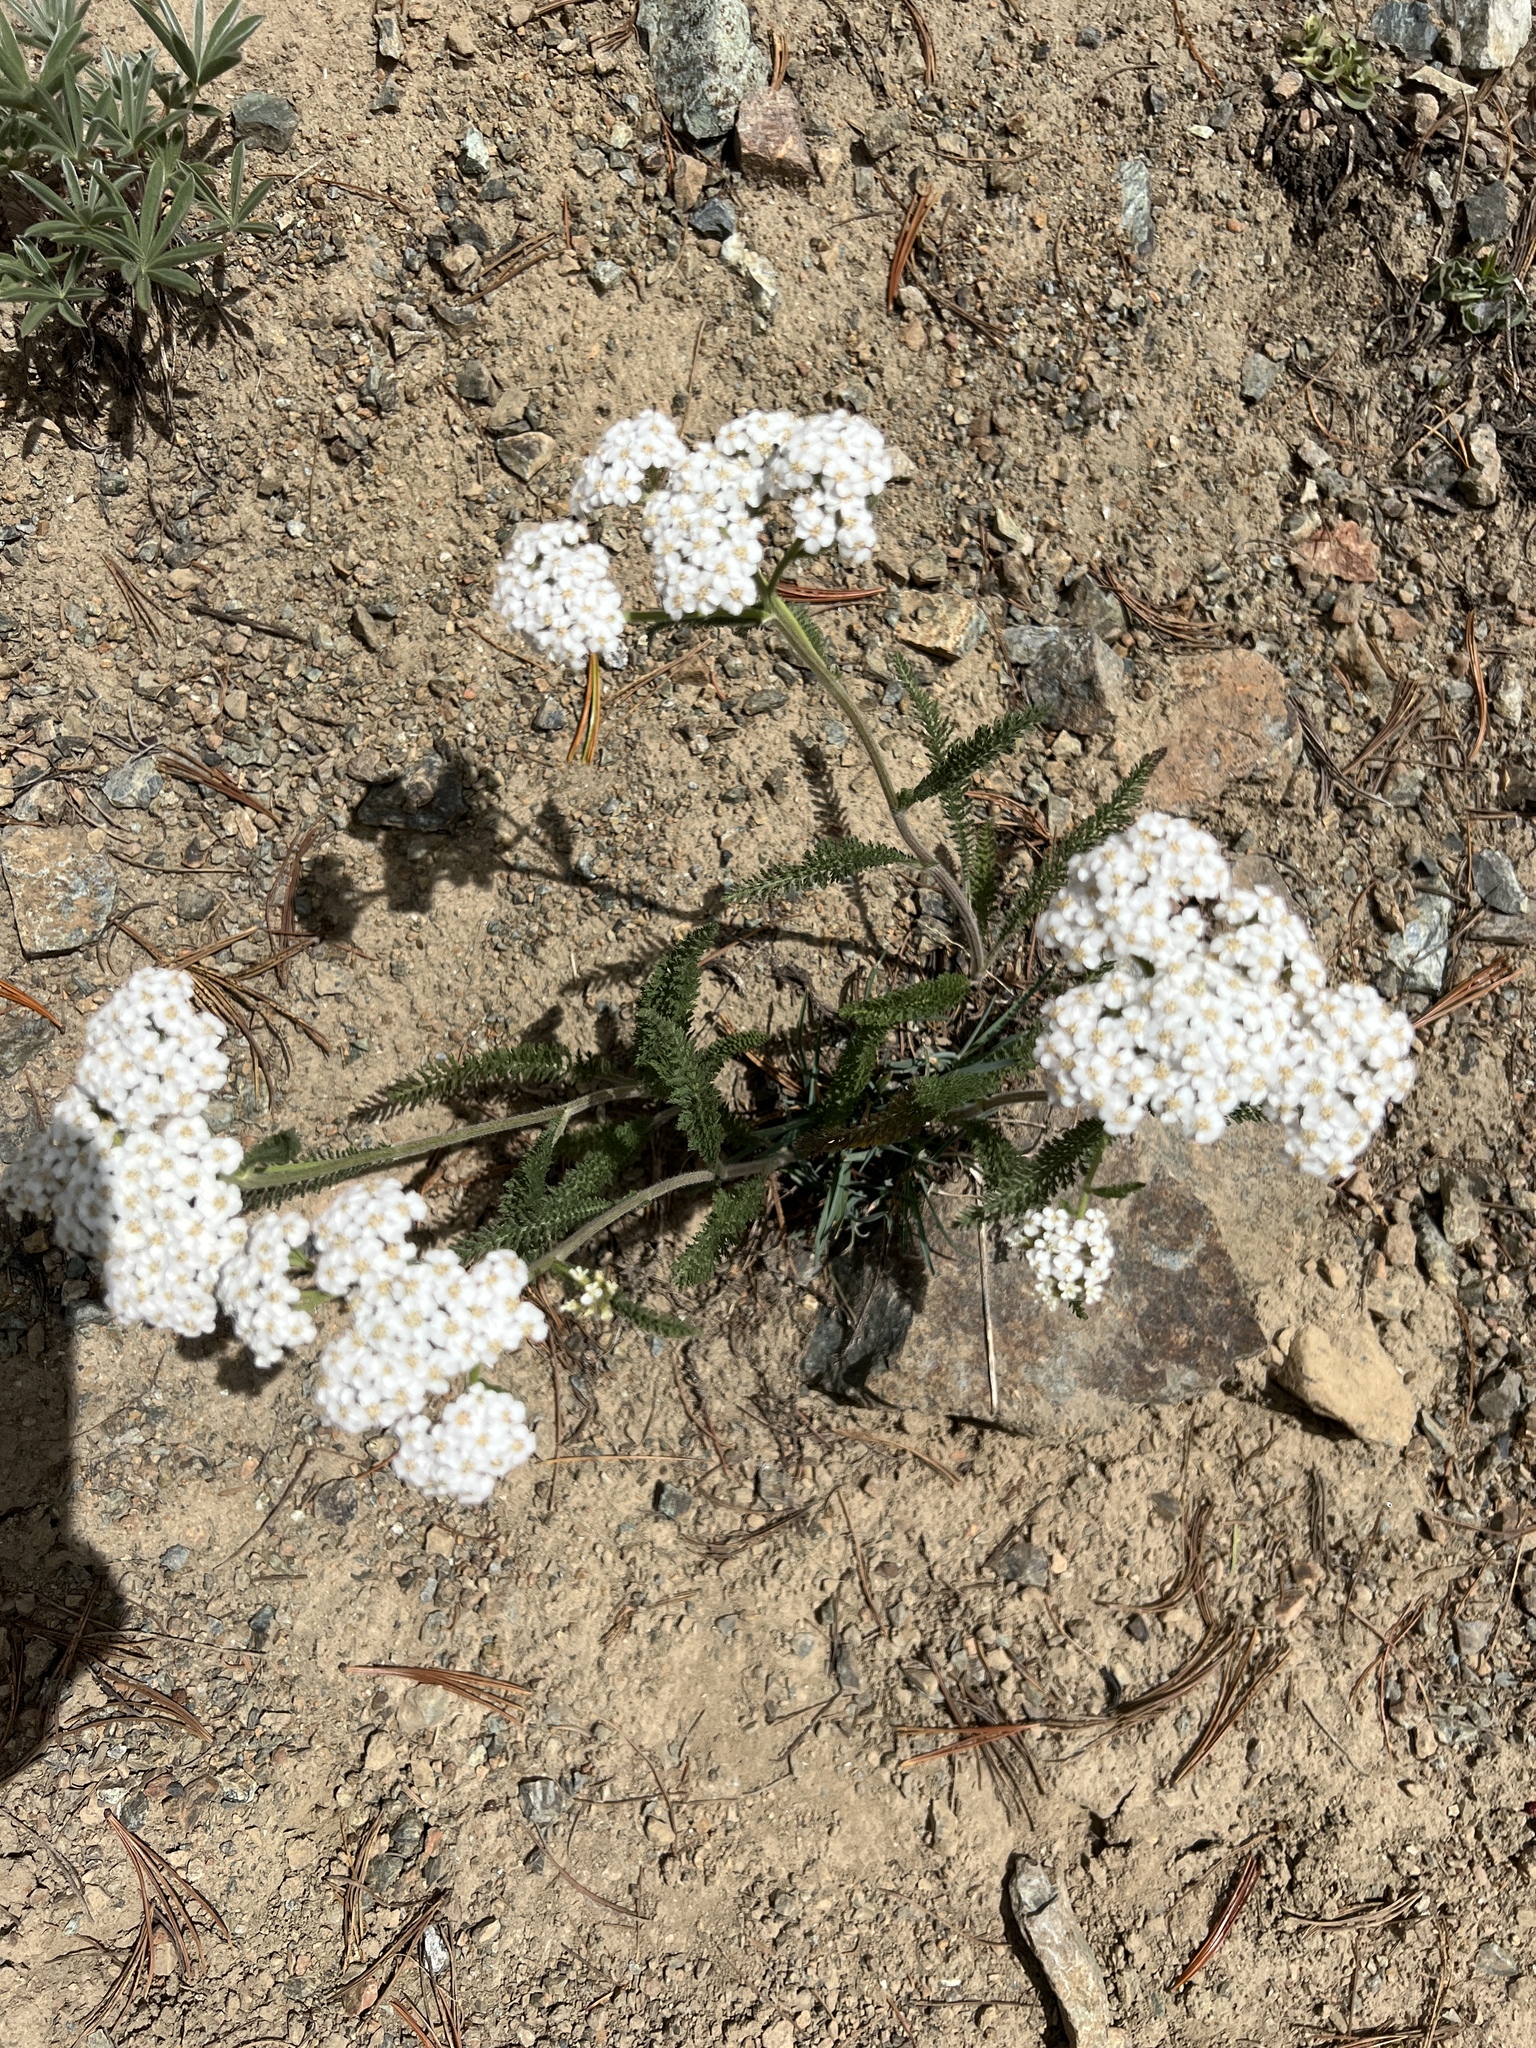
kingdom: Plantae
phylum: Tracheophyta
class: Magnoliopsida
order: Asterales
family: Asteraceae
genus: Achillea
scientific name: Achillea millefolium
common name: Yarrow
